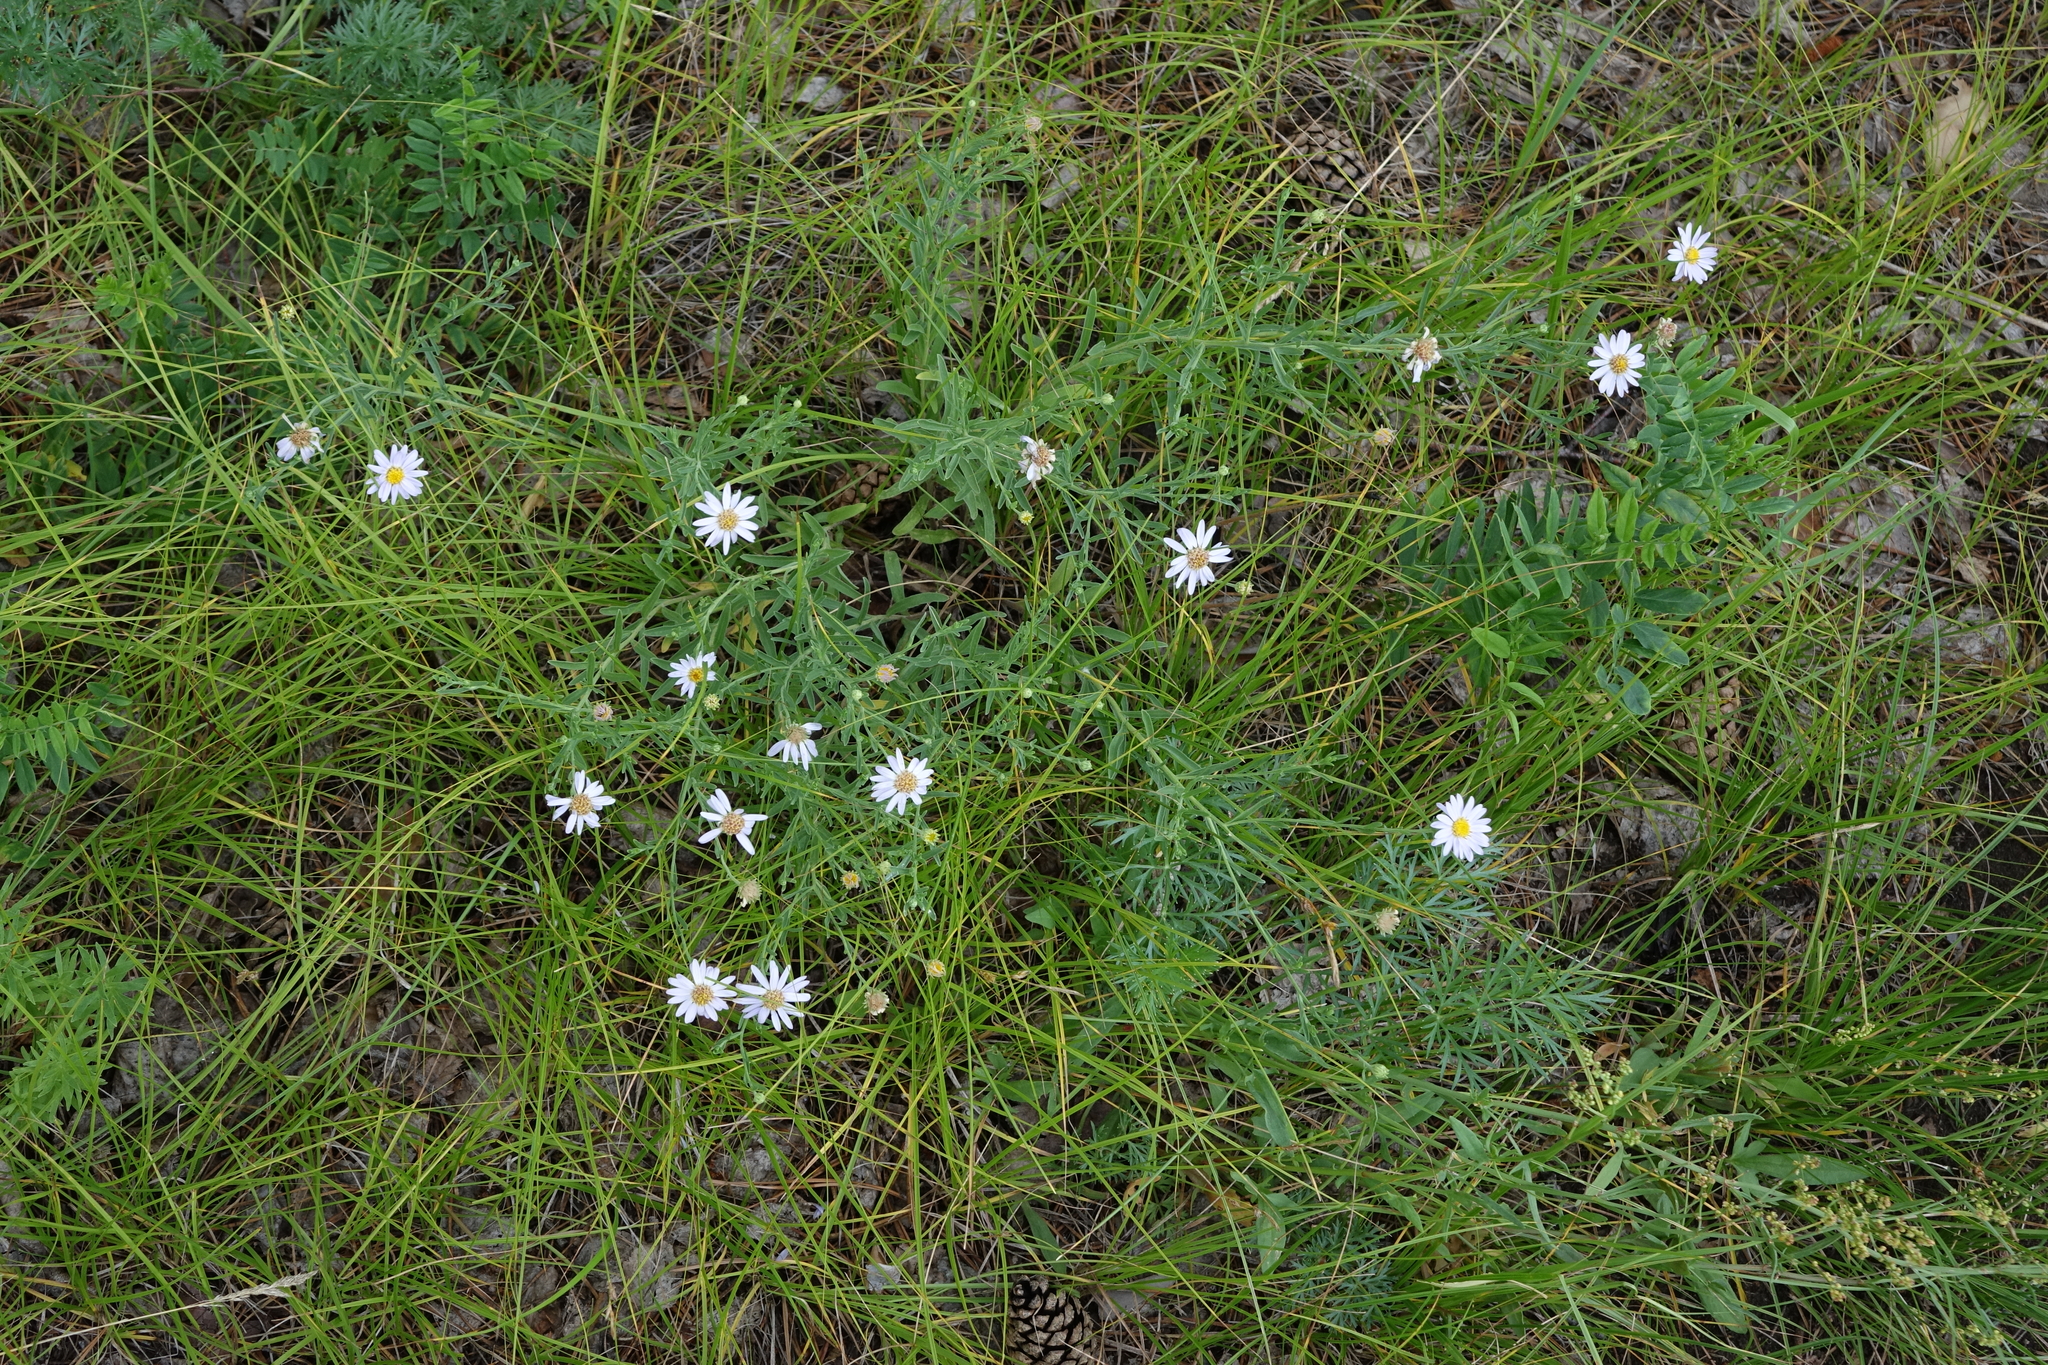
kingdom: Plantae
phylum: Tracheophyta
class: Magnoliopsida
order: Asterales
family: Asteraceae
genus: Heteropappus
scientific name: Heteropappus altaicus
